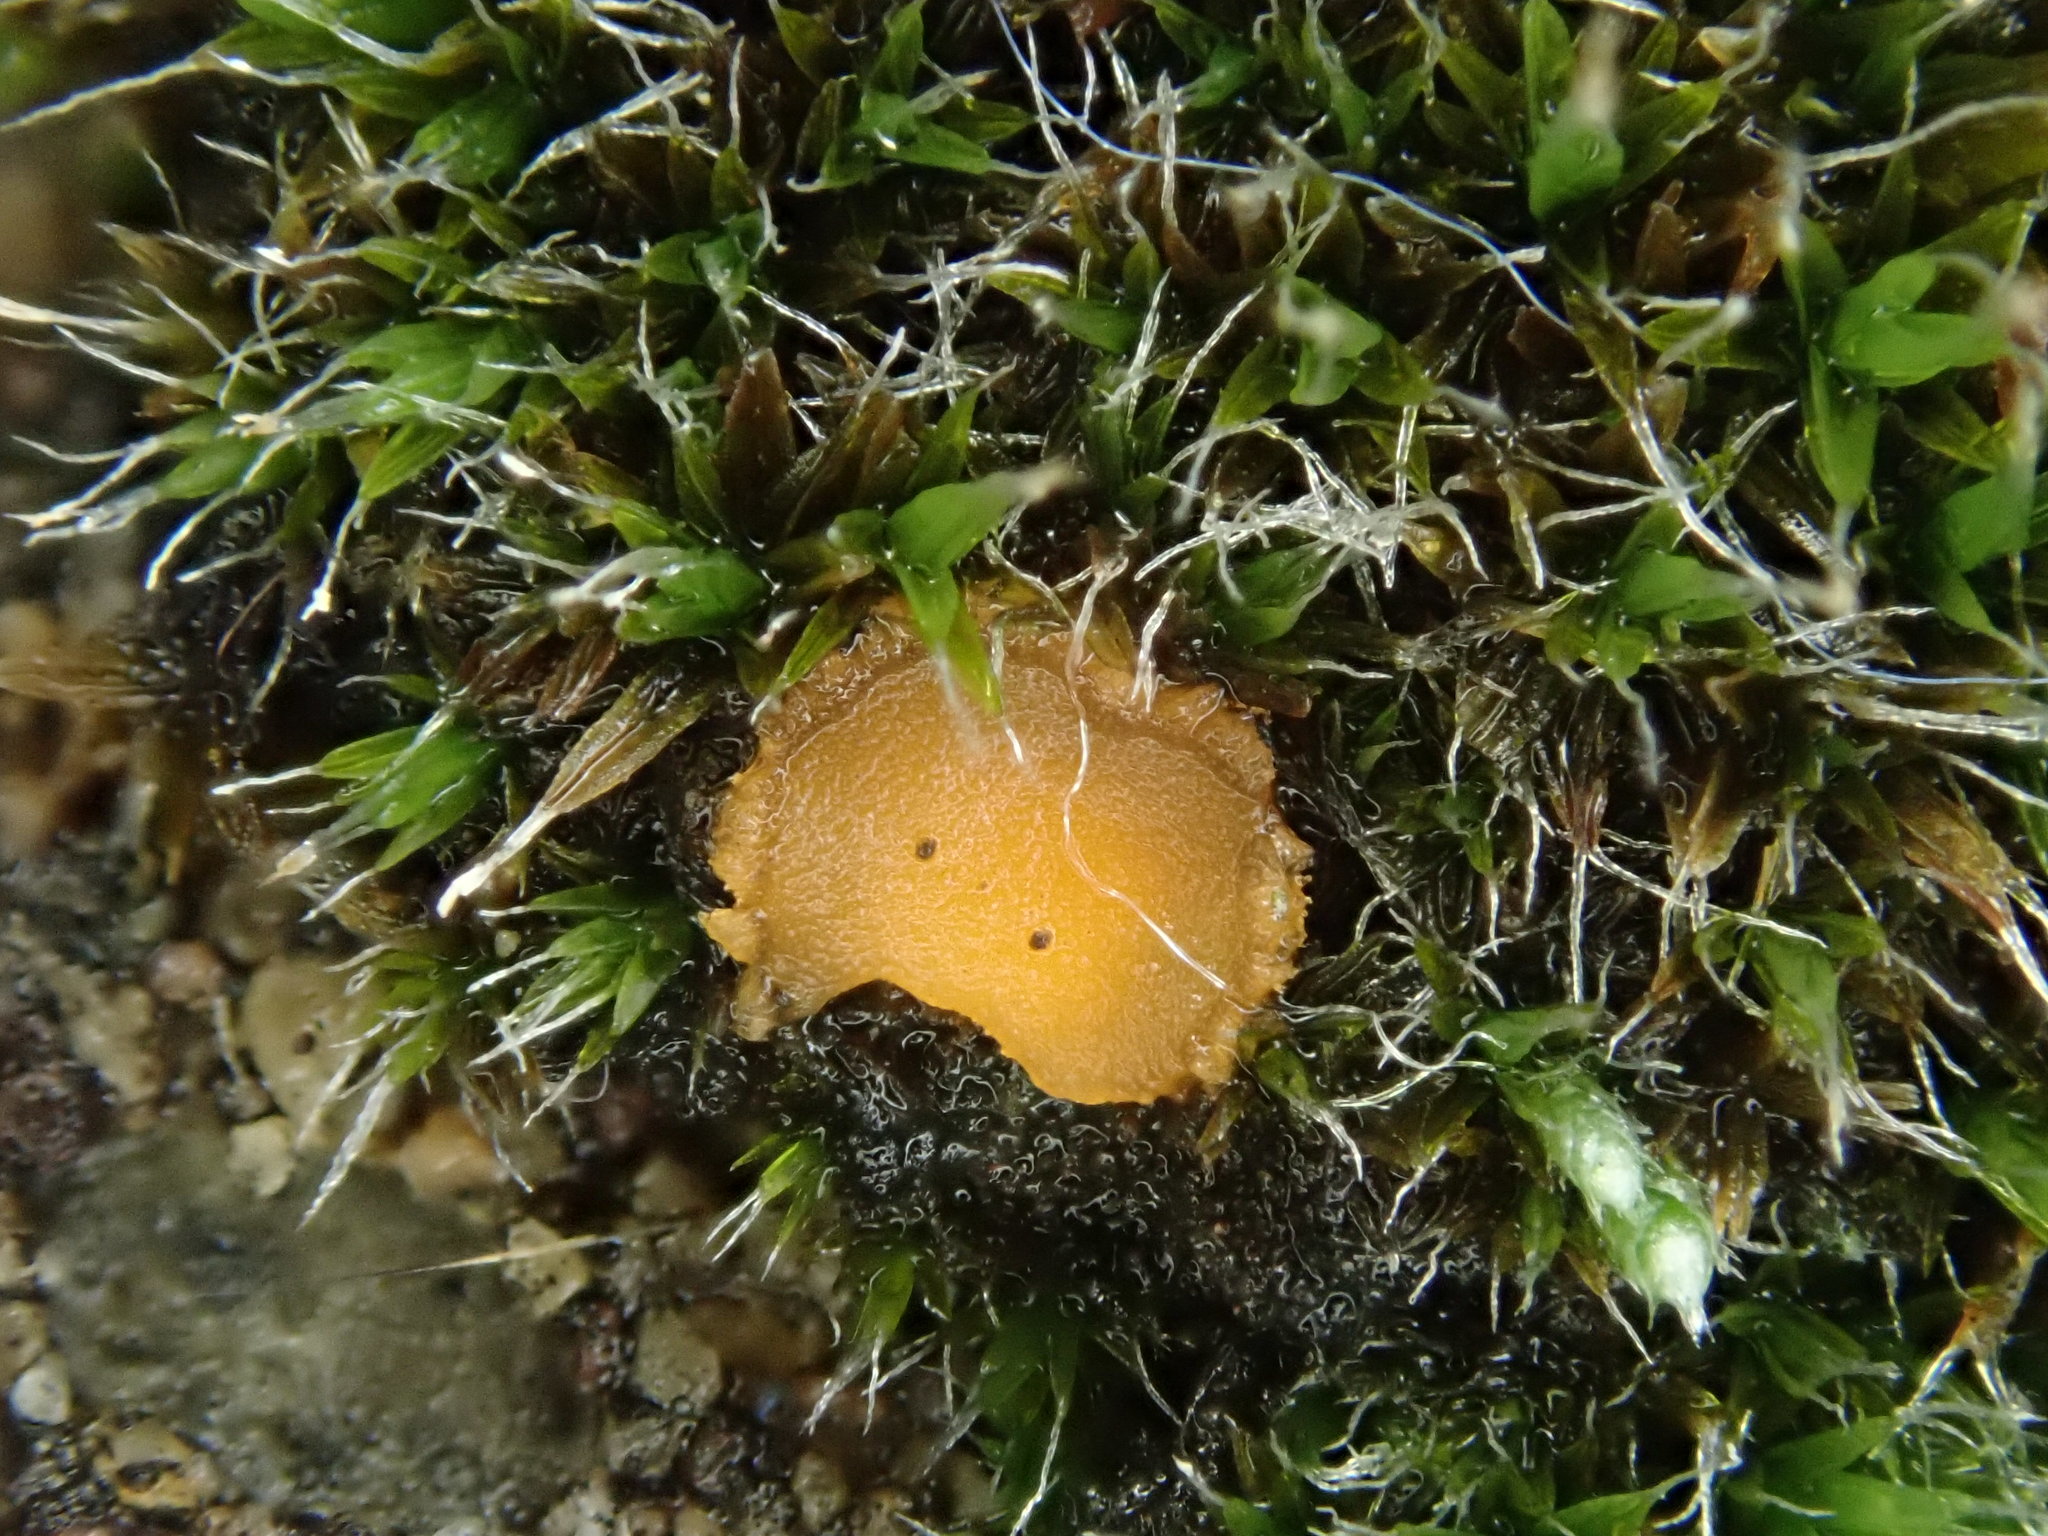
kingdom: Fungi
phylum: Ascomycota
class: Pezizomycetes
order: Pezizales
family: Pyronemataceae
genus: Octospora
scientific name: Octospora musci-muralis
